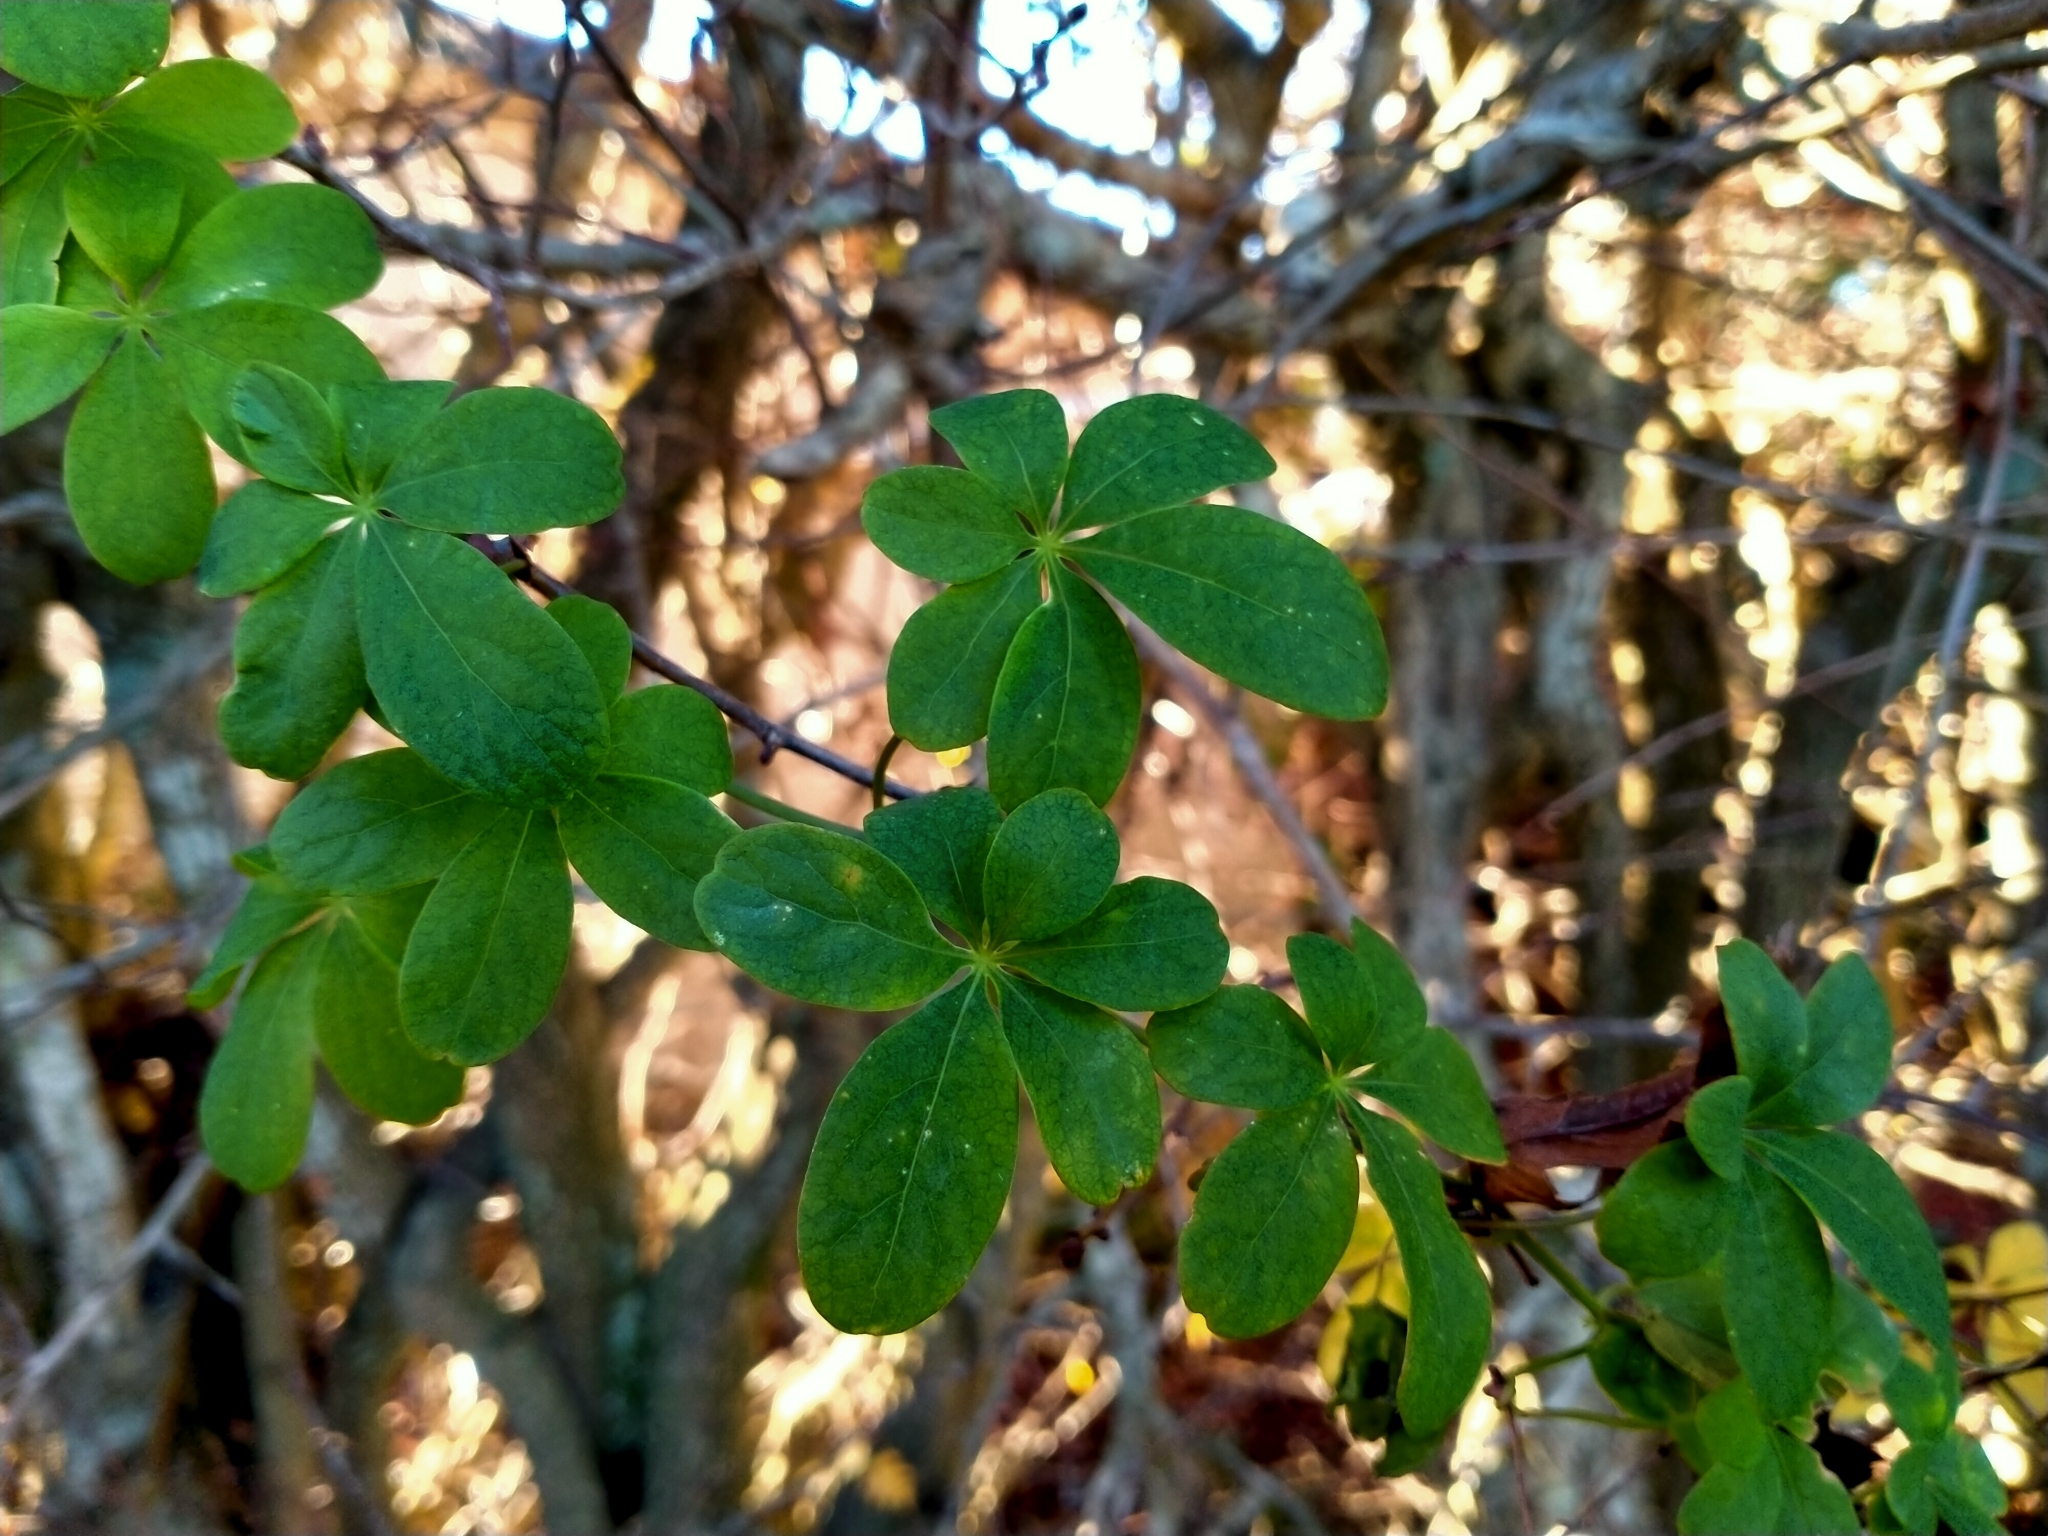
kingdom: Plantae
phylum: Tracheophyta
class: Magnoliopsida
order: Brassicales
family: Tropaeolaceae
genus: Tropaeolum
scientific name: Tropaeolum speciosum
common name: Flame nasturtium
